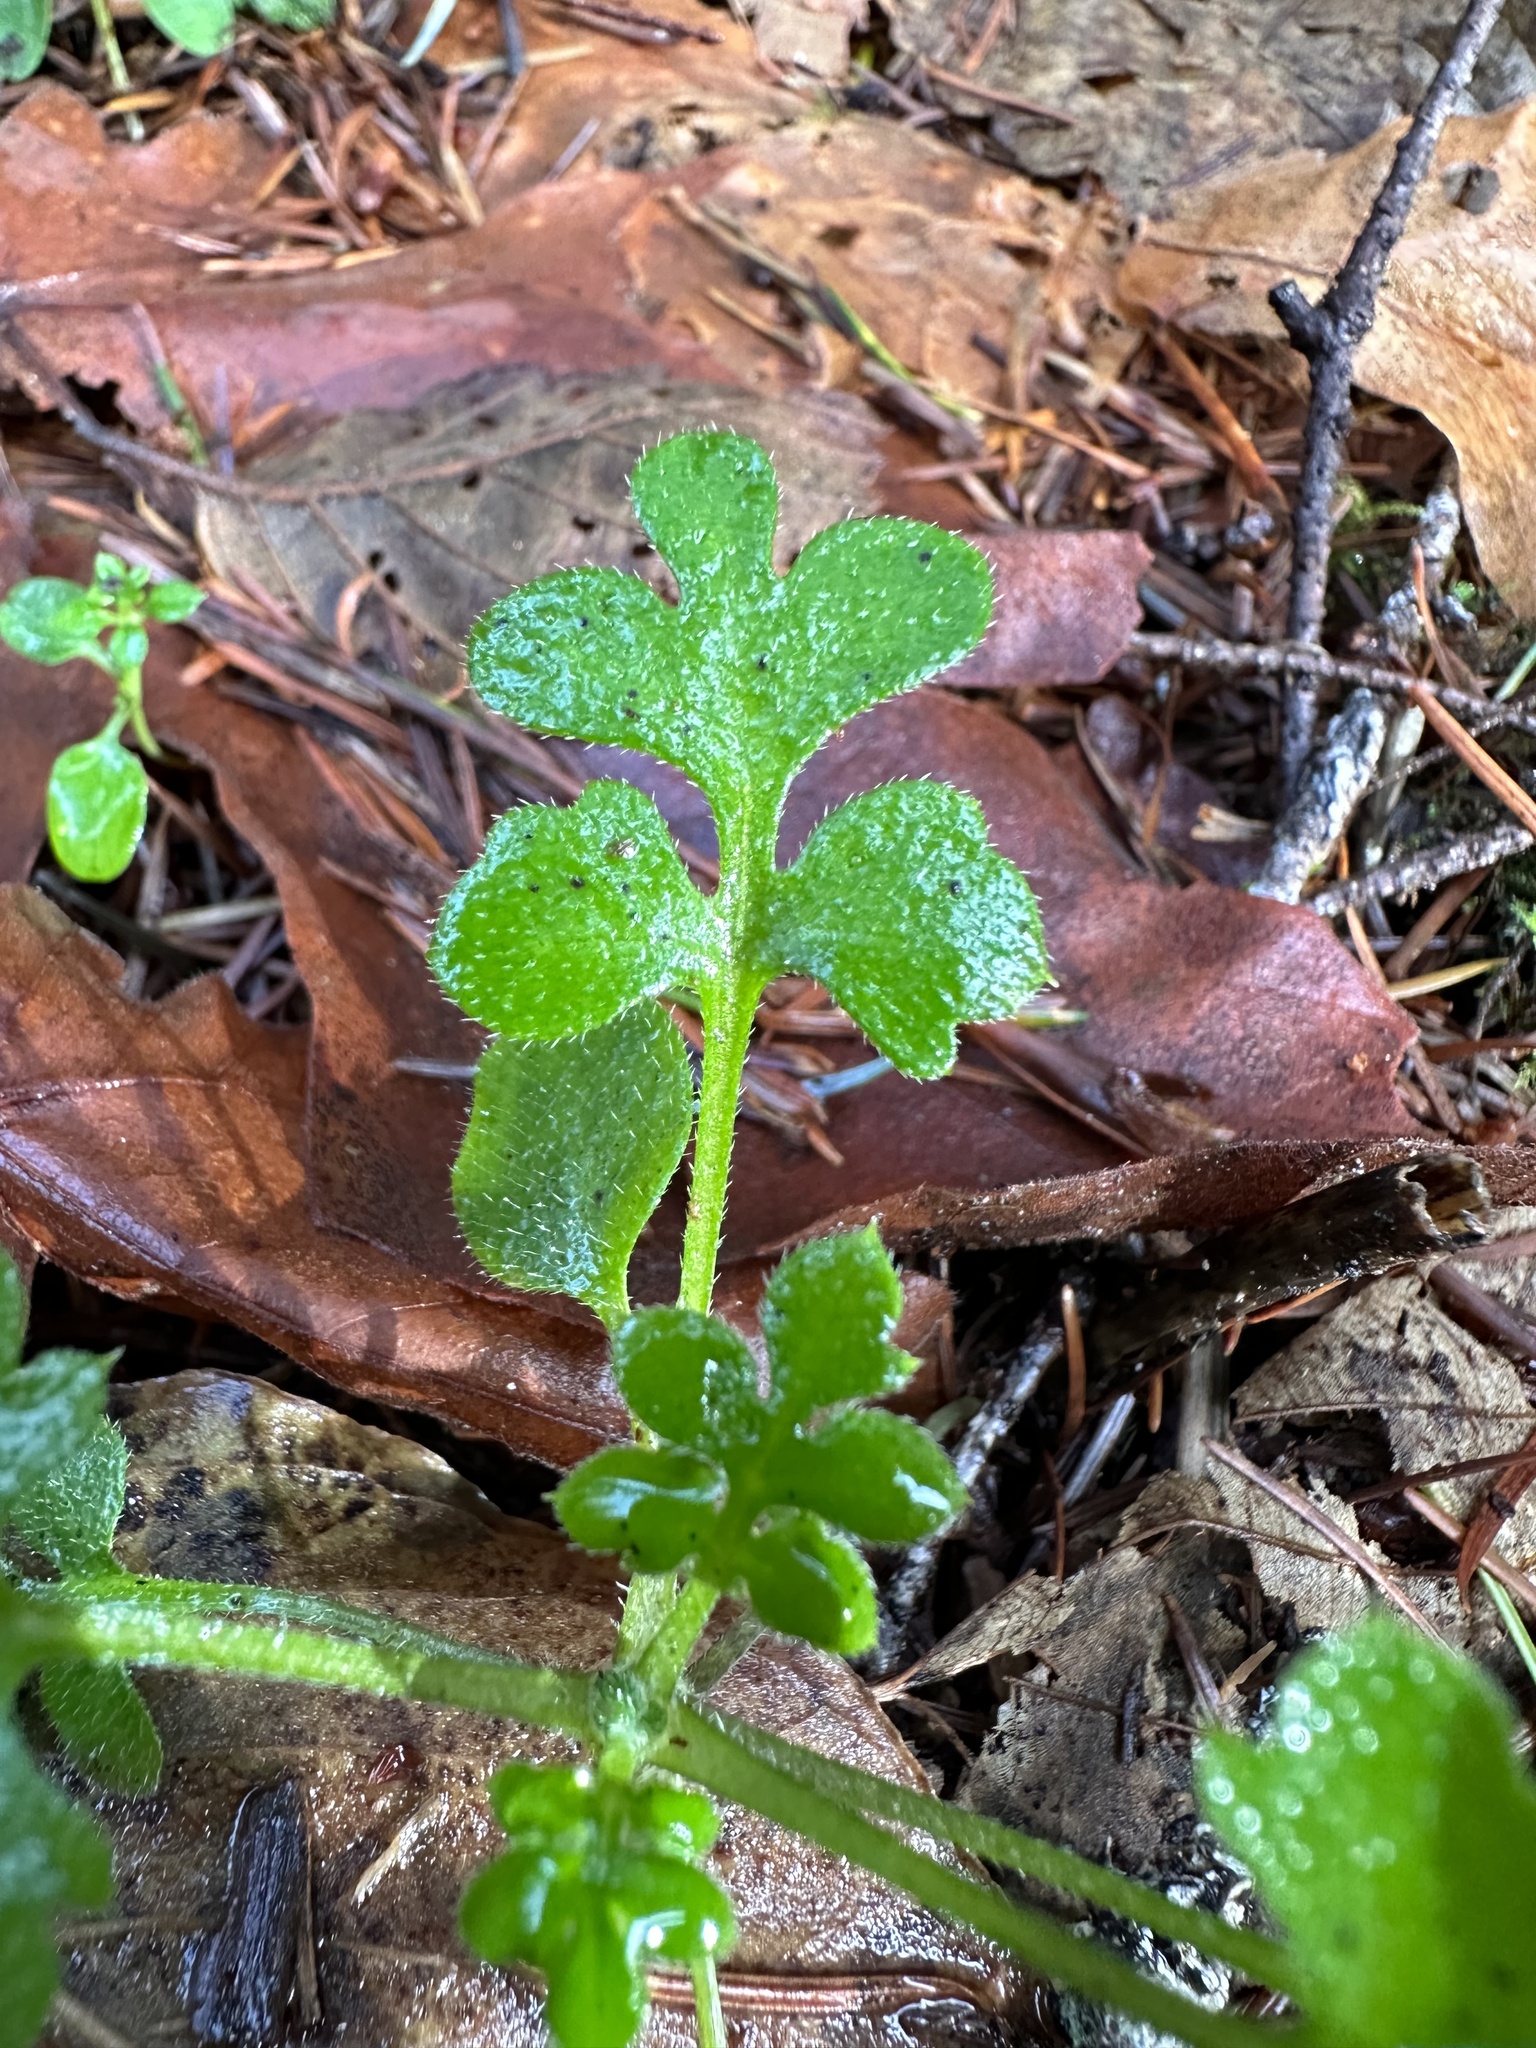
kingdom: Plantae
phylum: Tracheophyta
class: Magnoliopsida
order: Boraginales
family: Hydrophyllaceae
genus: Nemophila
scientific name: Nemophila parviflora
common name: Small-flowered baby-blue-eyes
